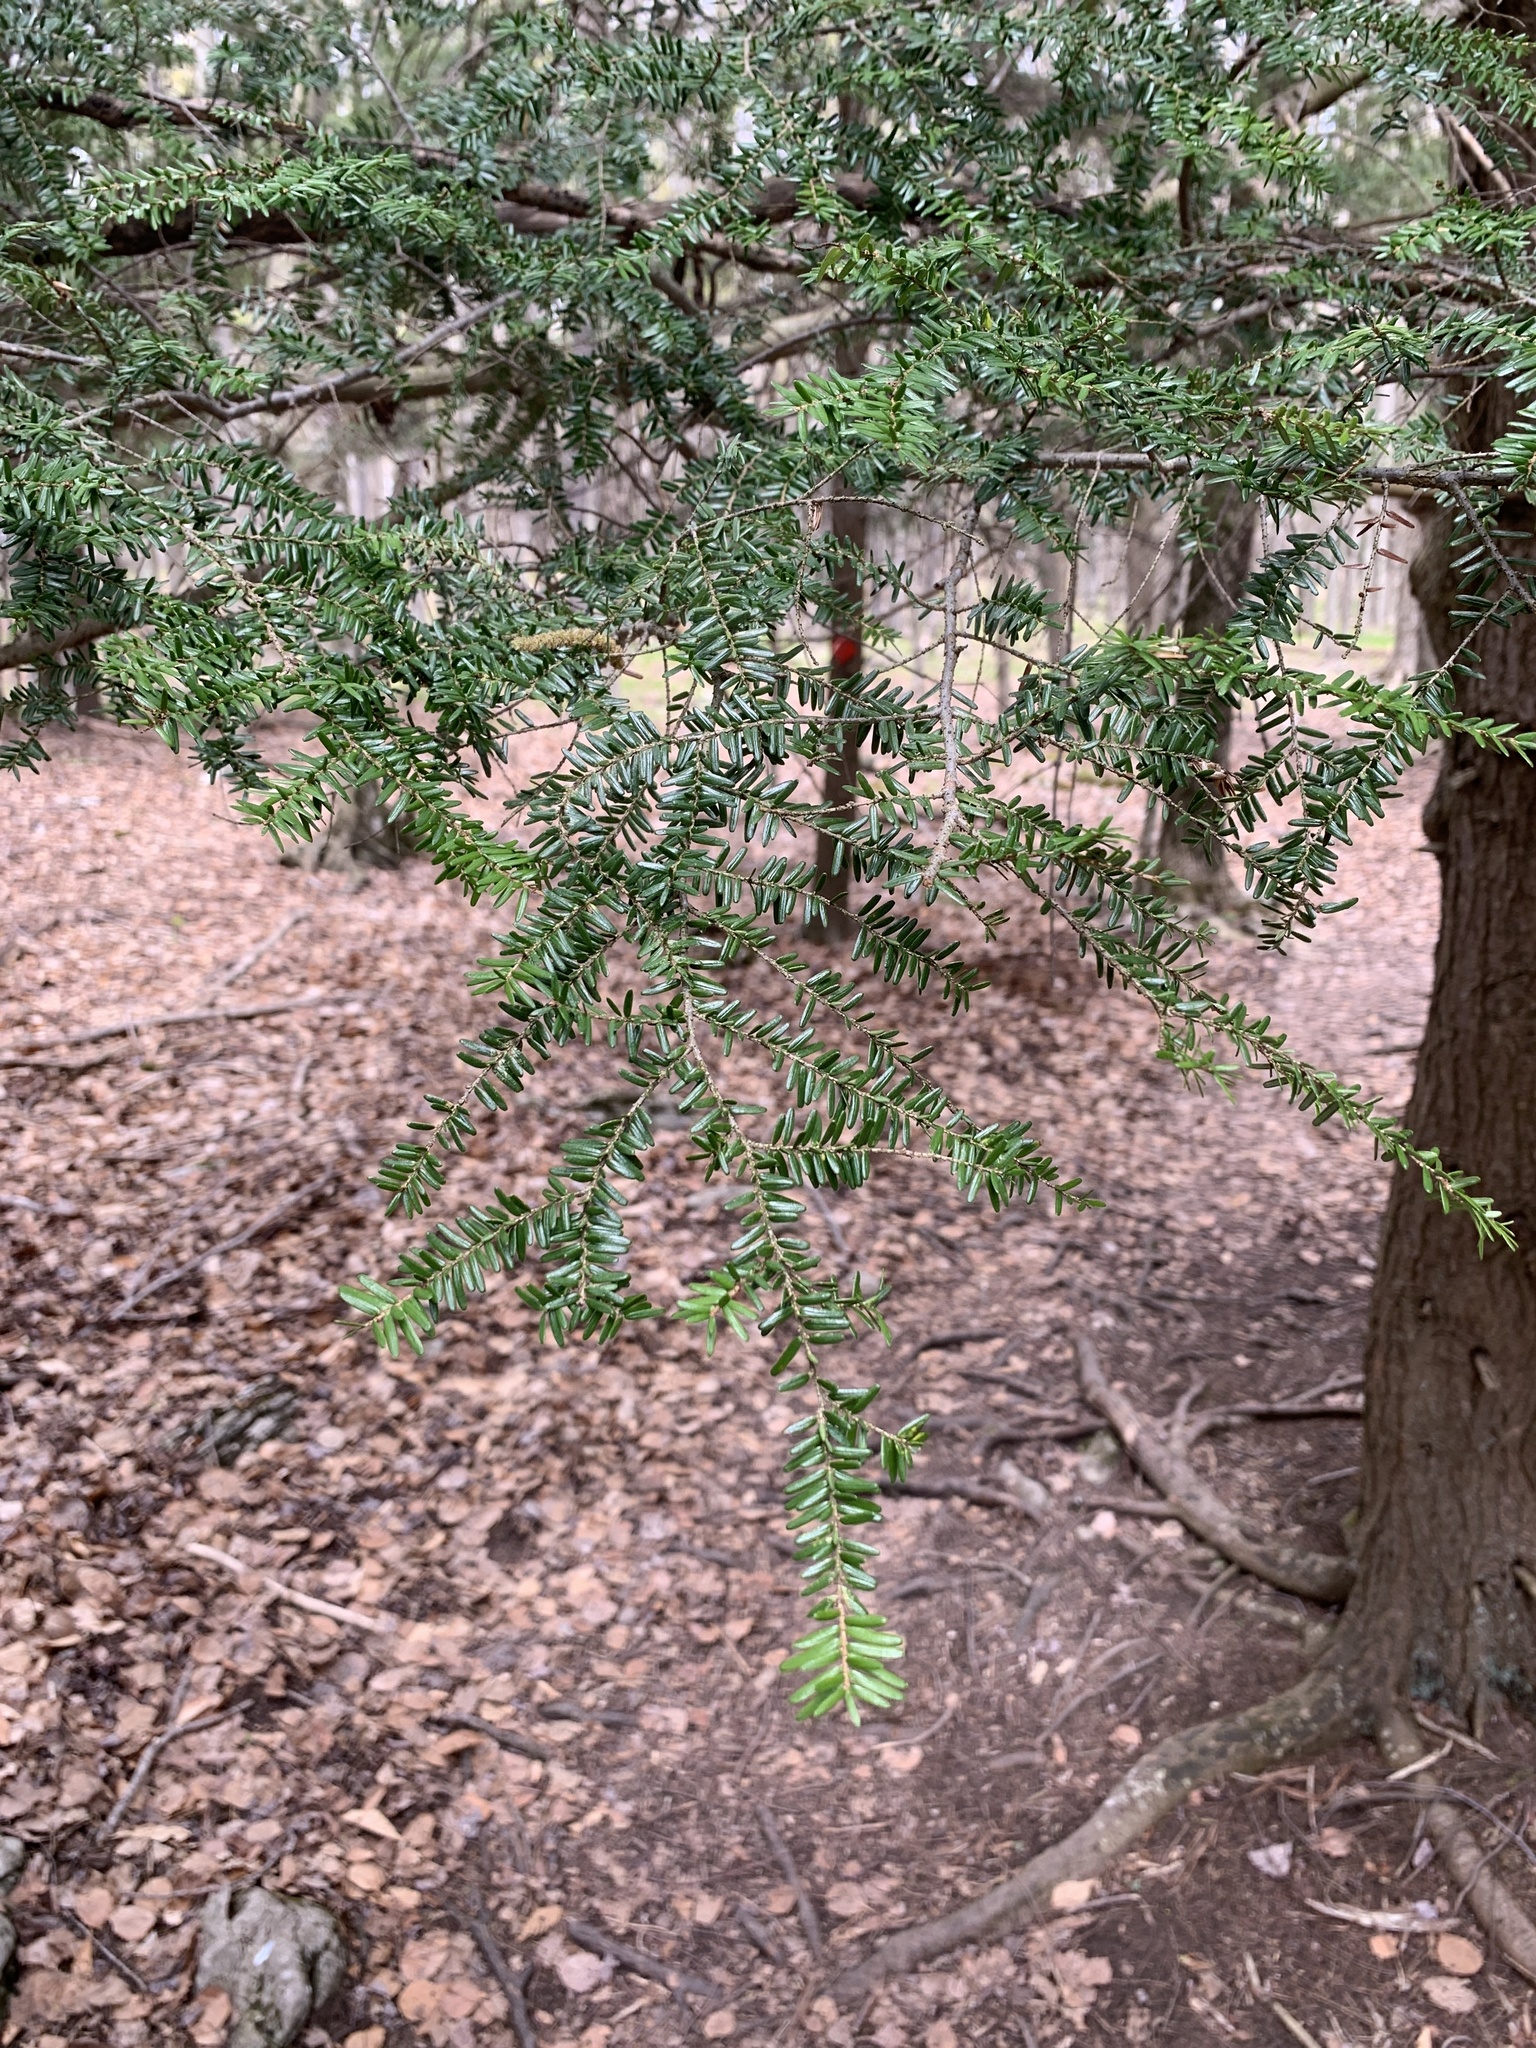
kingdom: Plantae
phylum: Tracheophyta
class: Pinopsida
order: Pinales
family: Pinaceae
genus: Tsuga
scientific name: Tsuga canadensis
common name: Eastern hemlock
